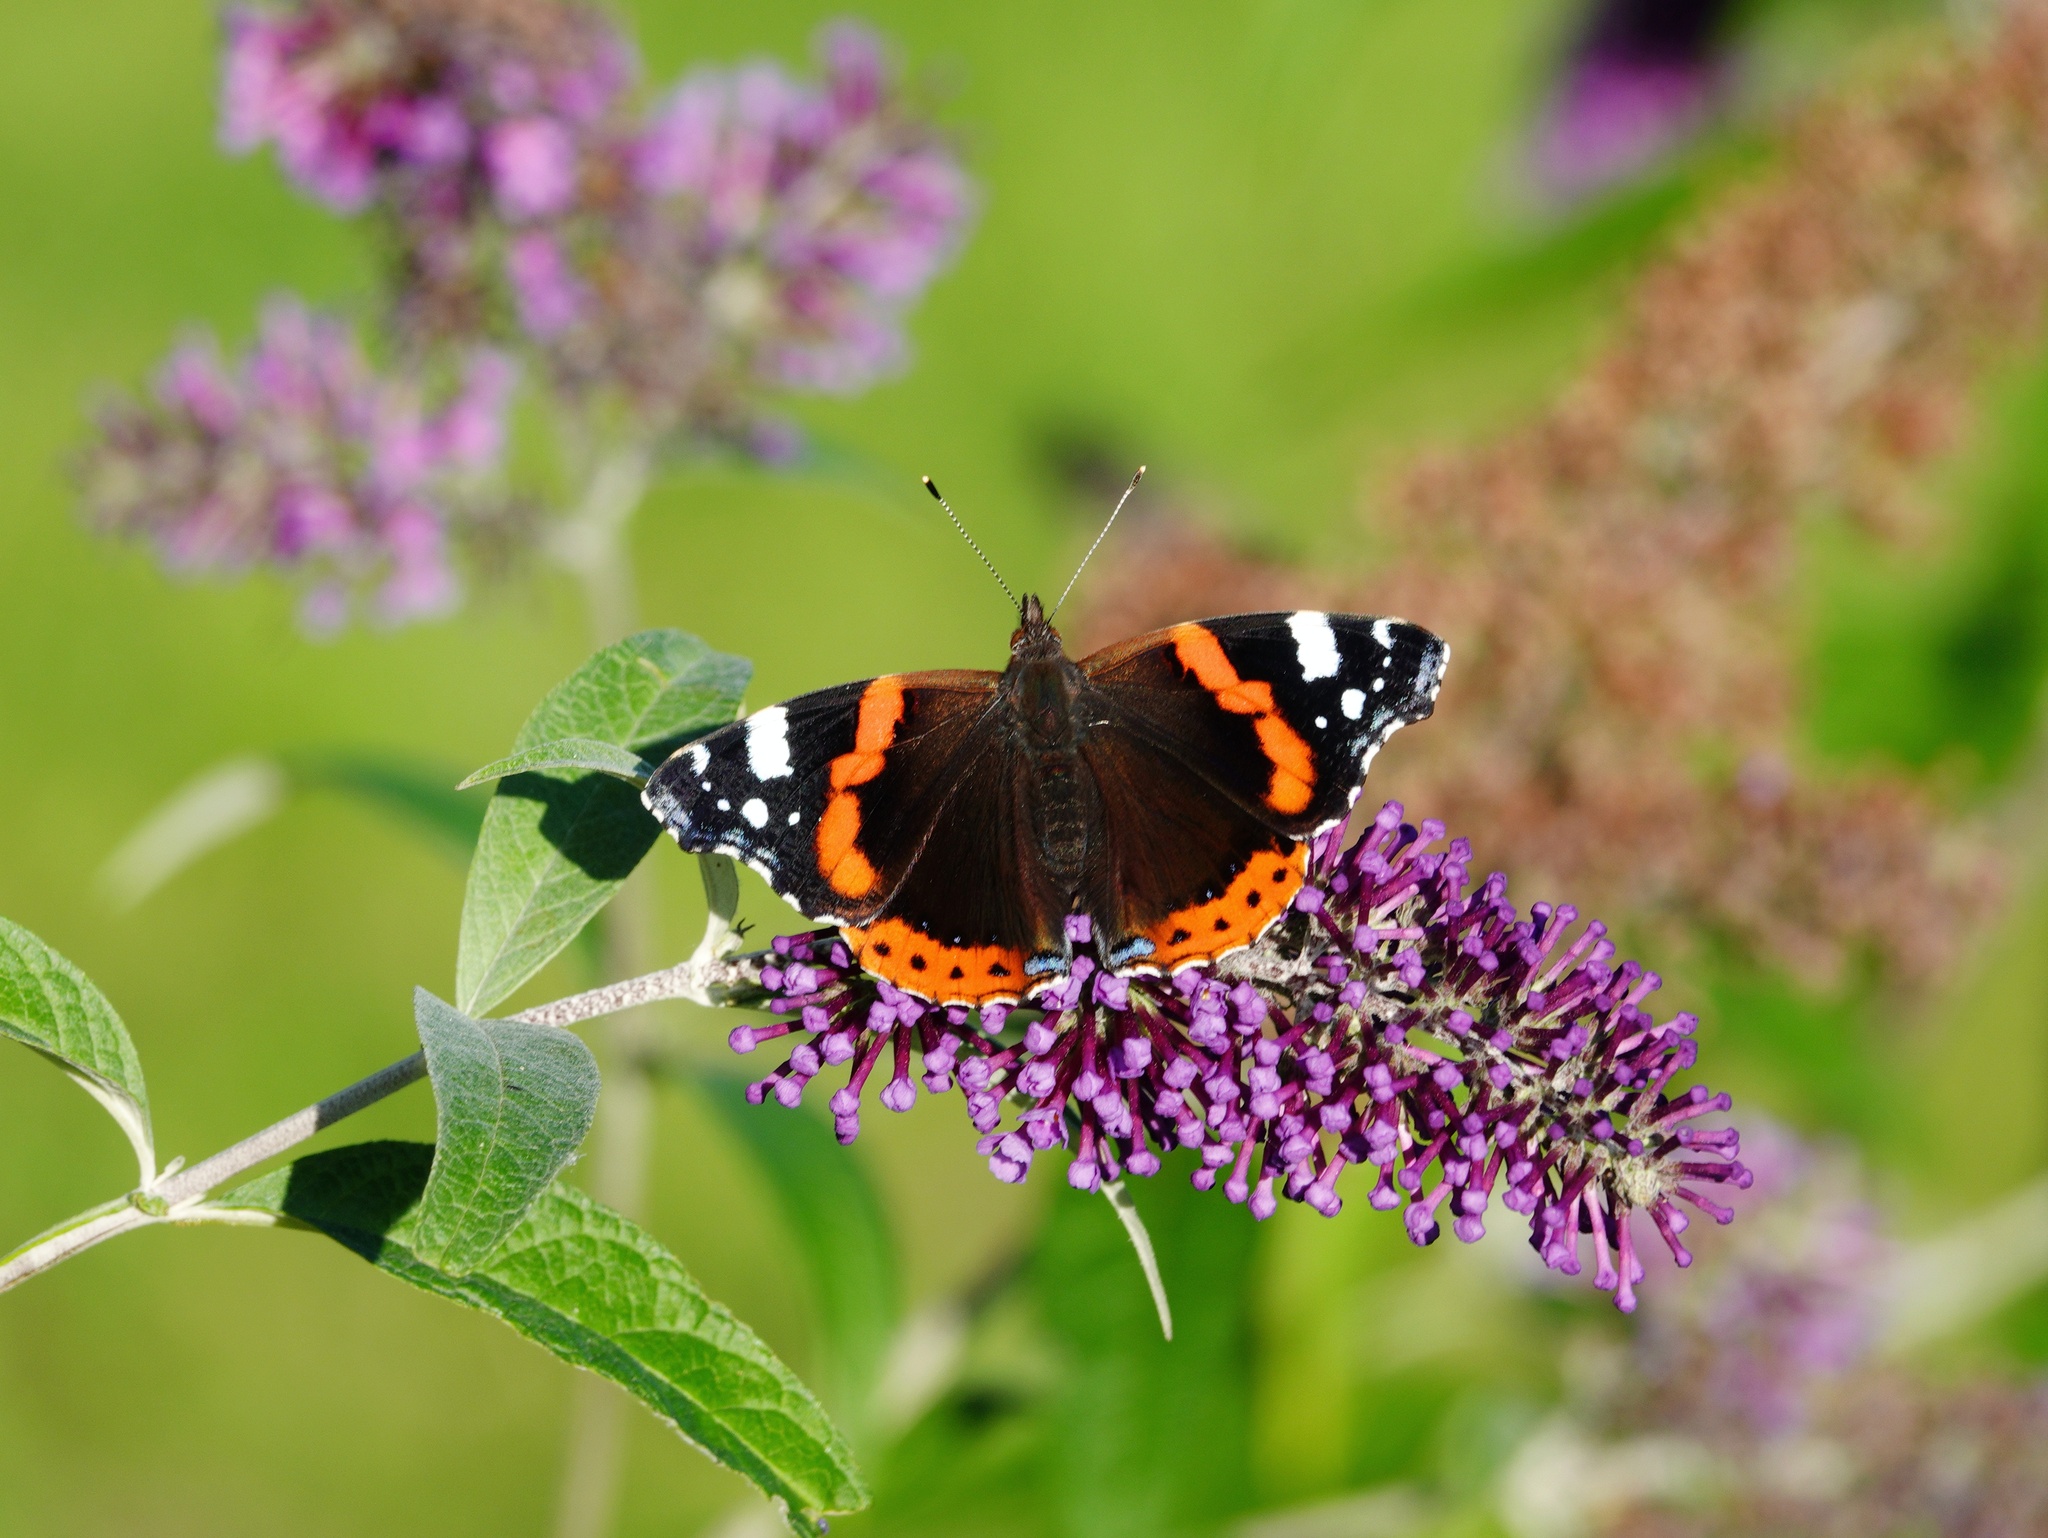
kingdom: Animalia
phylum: Arthropoda
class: Insecta
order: Lepidoptera
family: Nymphalidae
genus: Vanessa
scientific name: Vanessa atalanta
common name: Red admiral
